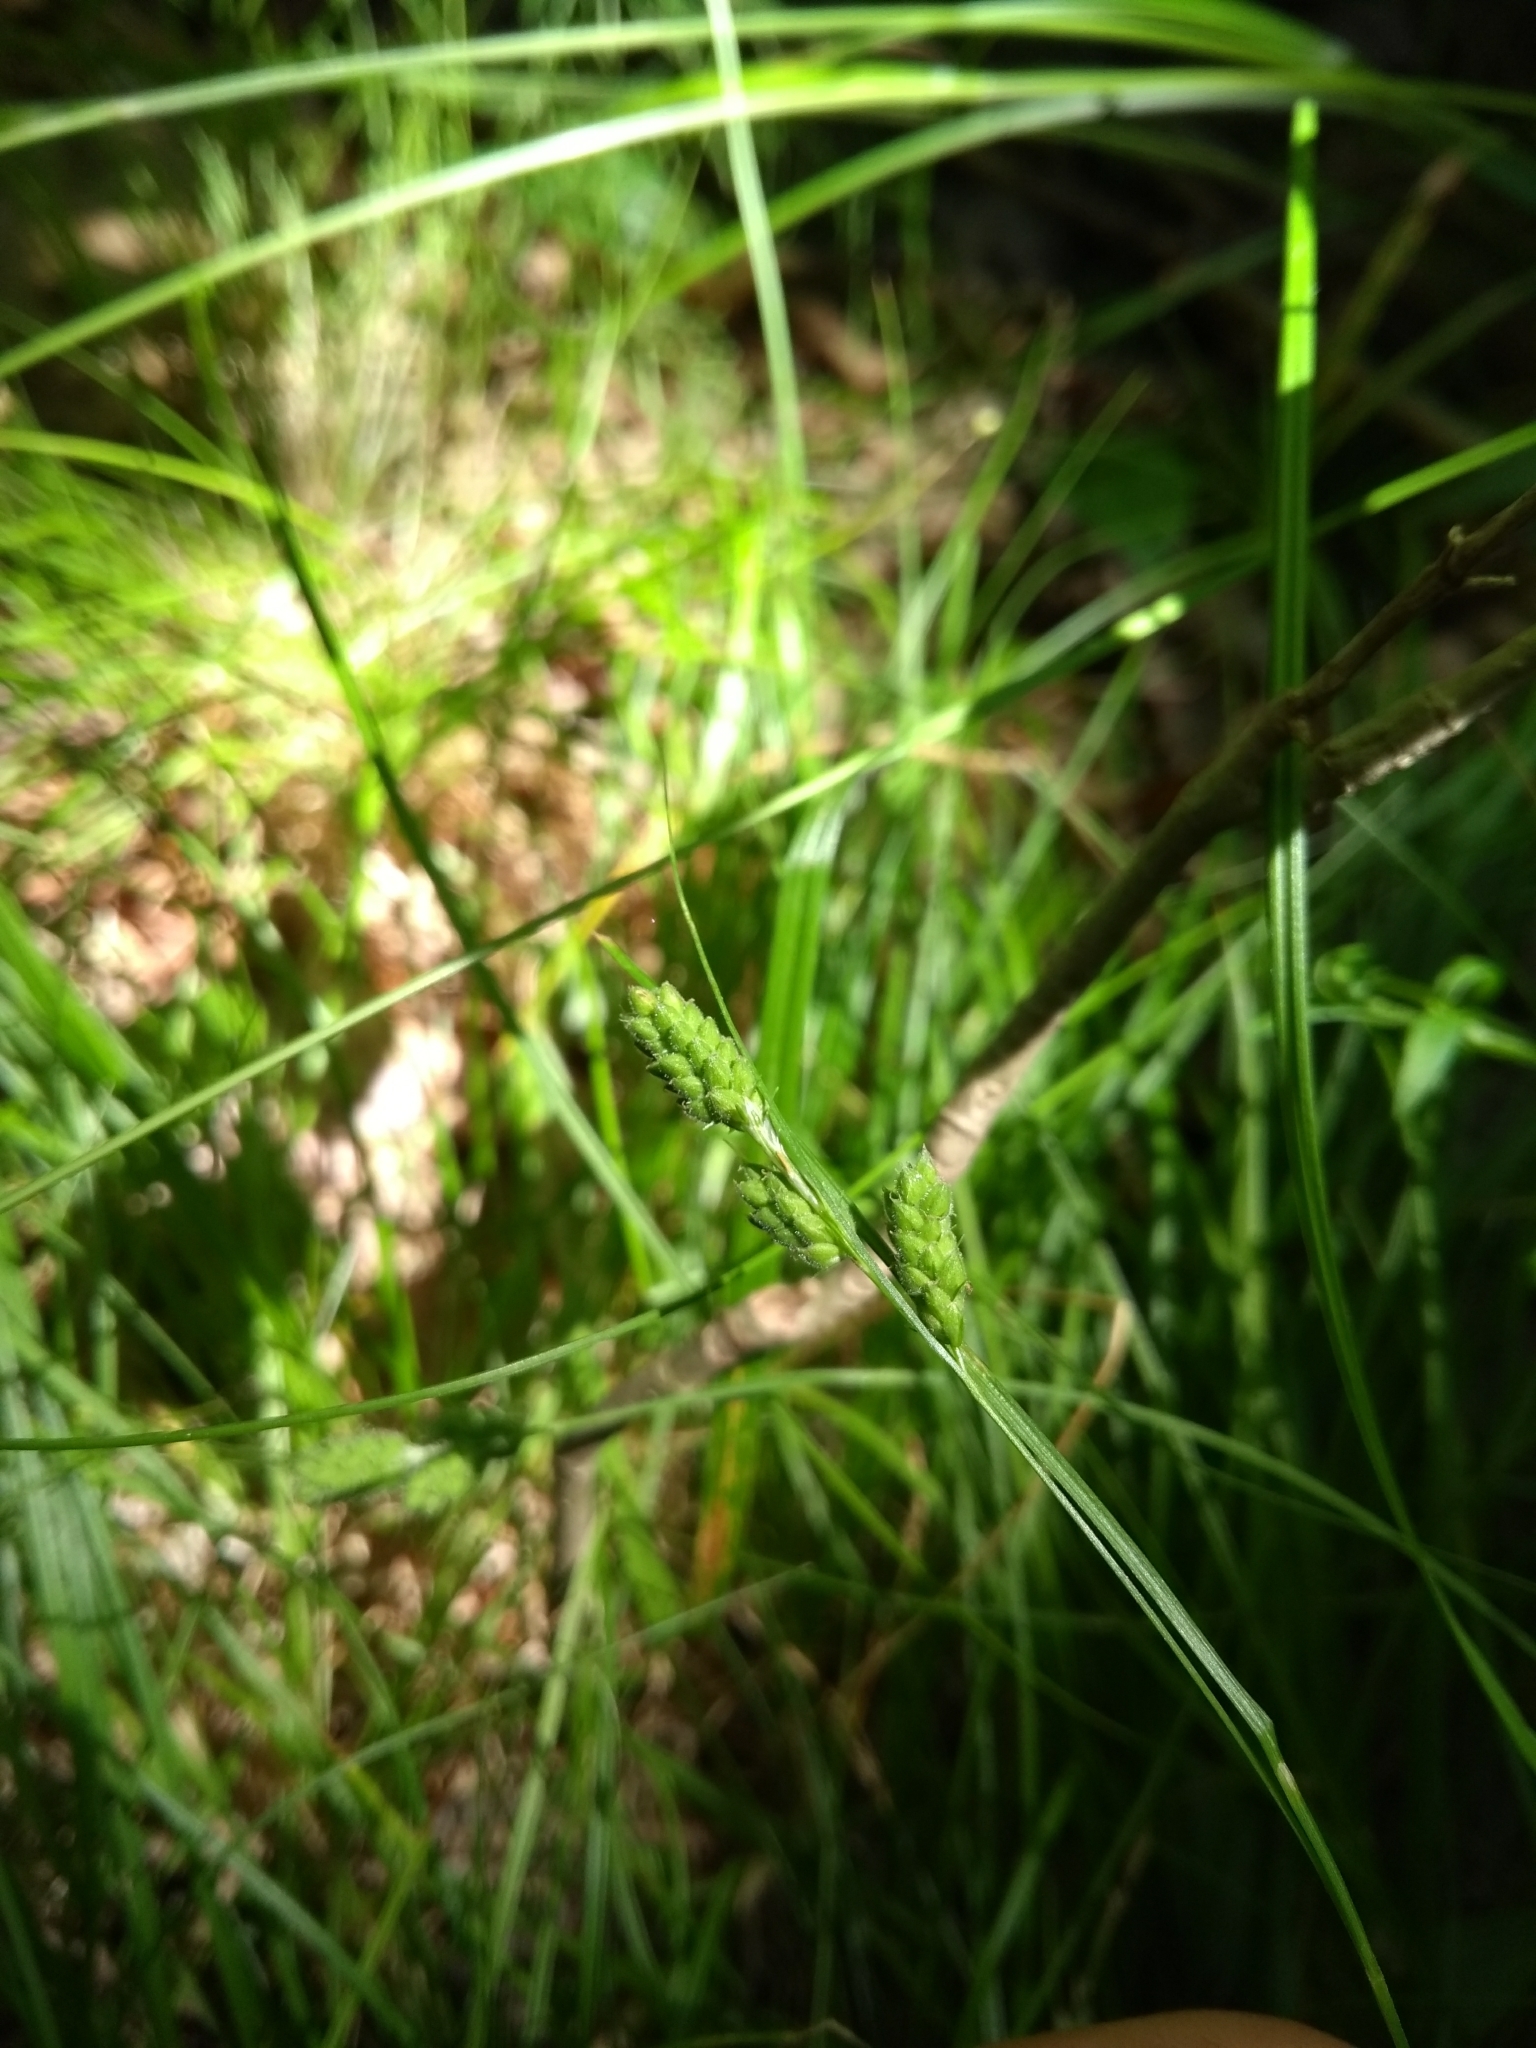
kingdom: Plantae
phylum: Tracheophyta
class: Liliopsida
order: Poales
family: Cyperaceae
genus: Carex
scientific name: Carex swanii
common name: Downy green sedge
